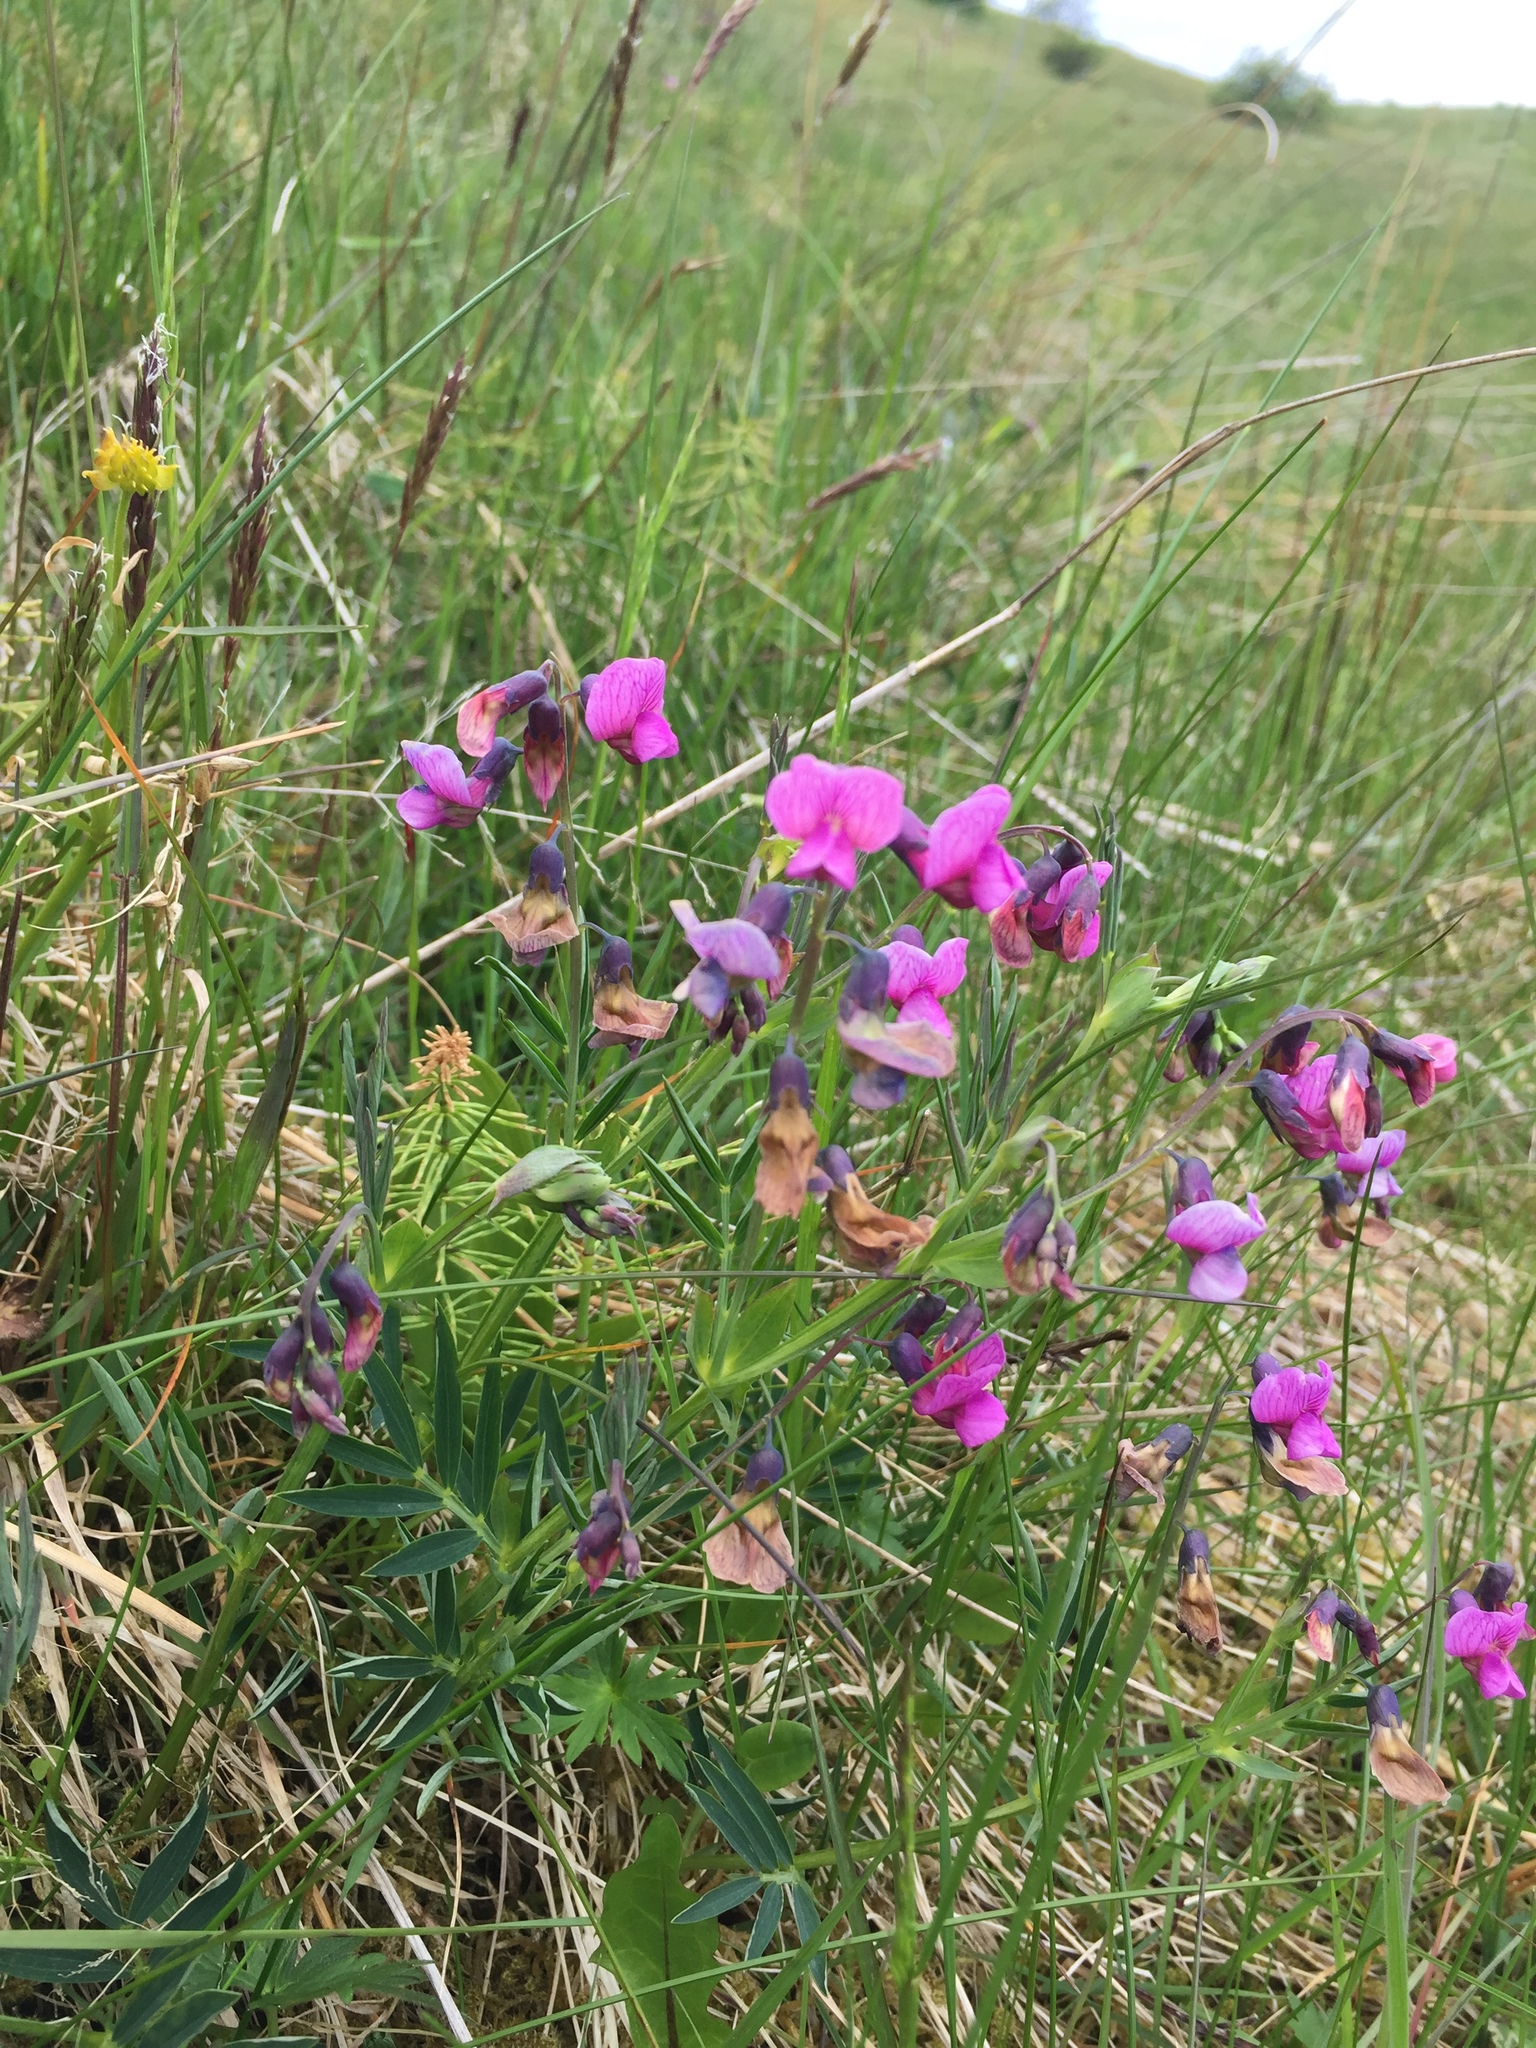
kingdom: Plantae
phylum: Tracheophyta
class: Magnoliopsida
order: Fabales
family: Fabaceae
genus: Lathyrus
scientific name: Lathyrus linifolius
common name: Bitter-vetch
